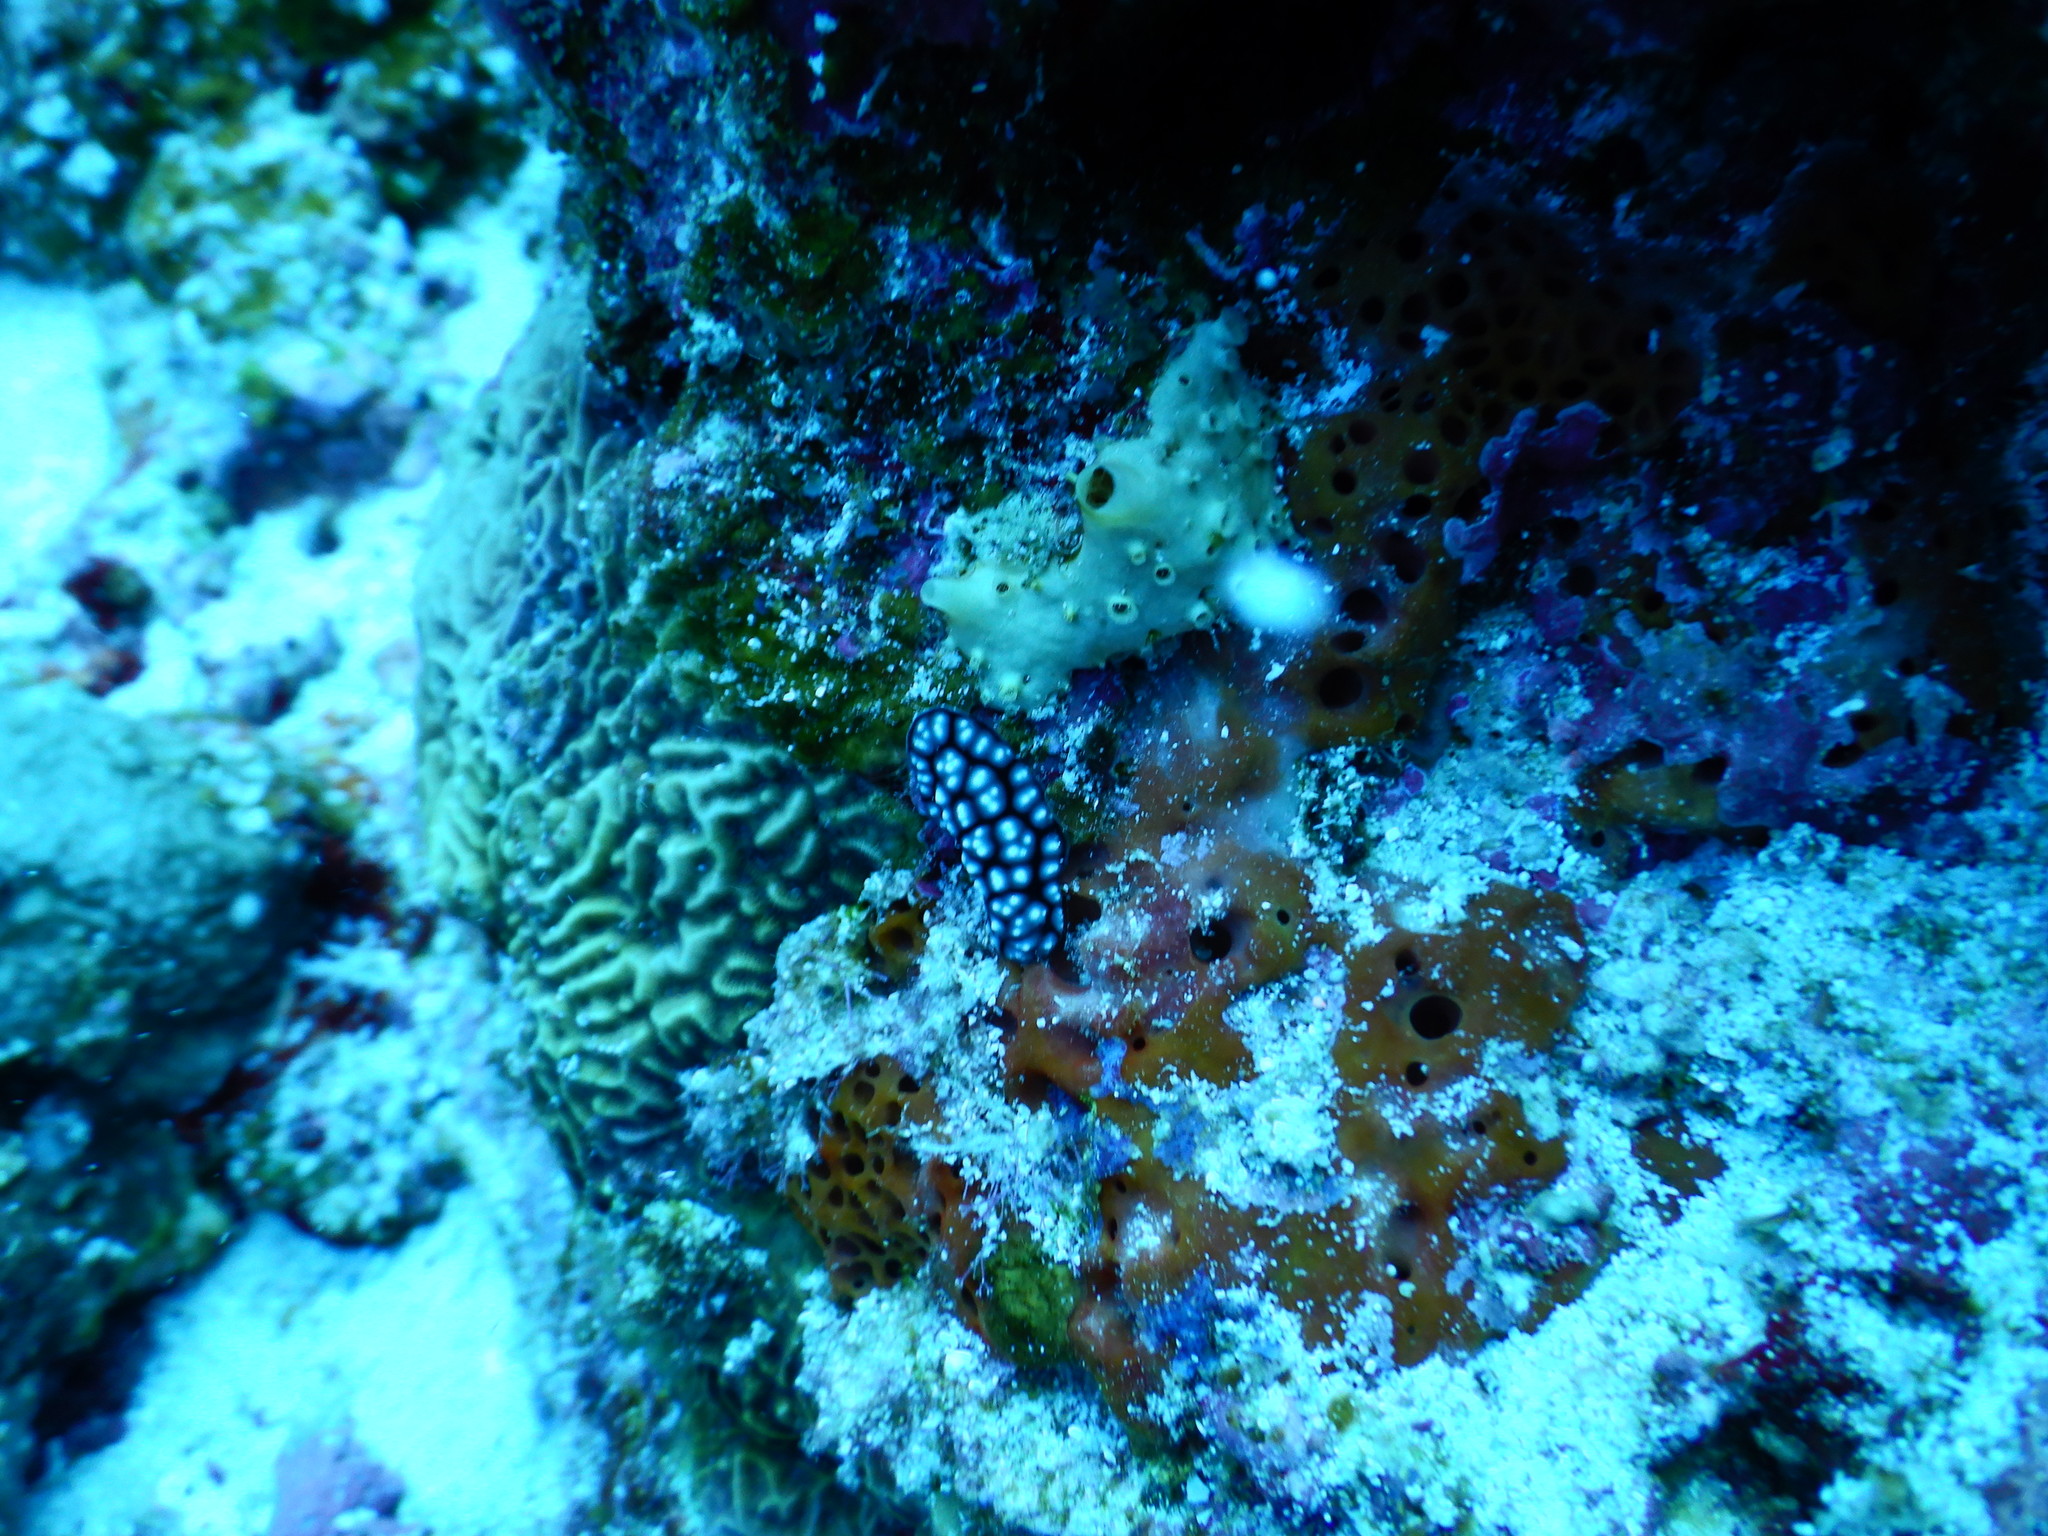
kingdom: Animalia
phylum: Mollusca
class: Gastropoda
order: Nudibranchia
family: Phyllidiidae
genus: Phyllidiella
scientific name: Phyllidiella pustulosa
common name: Pustular phyllidia
